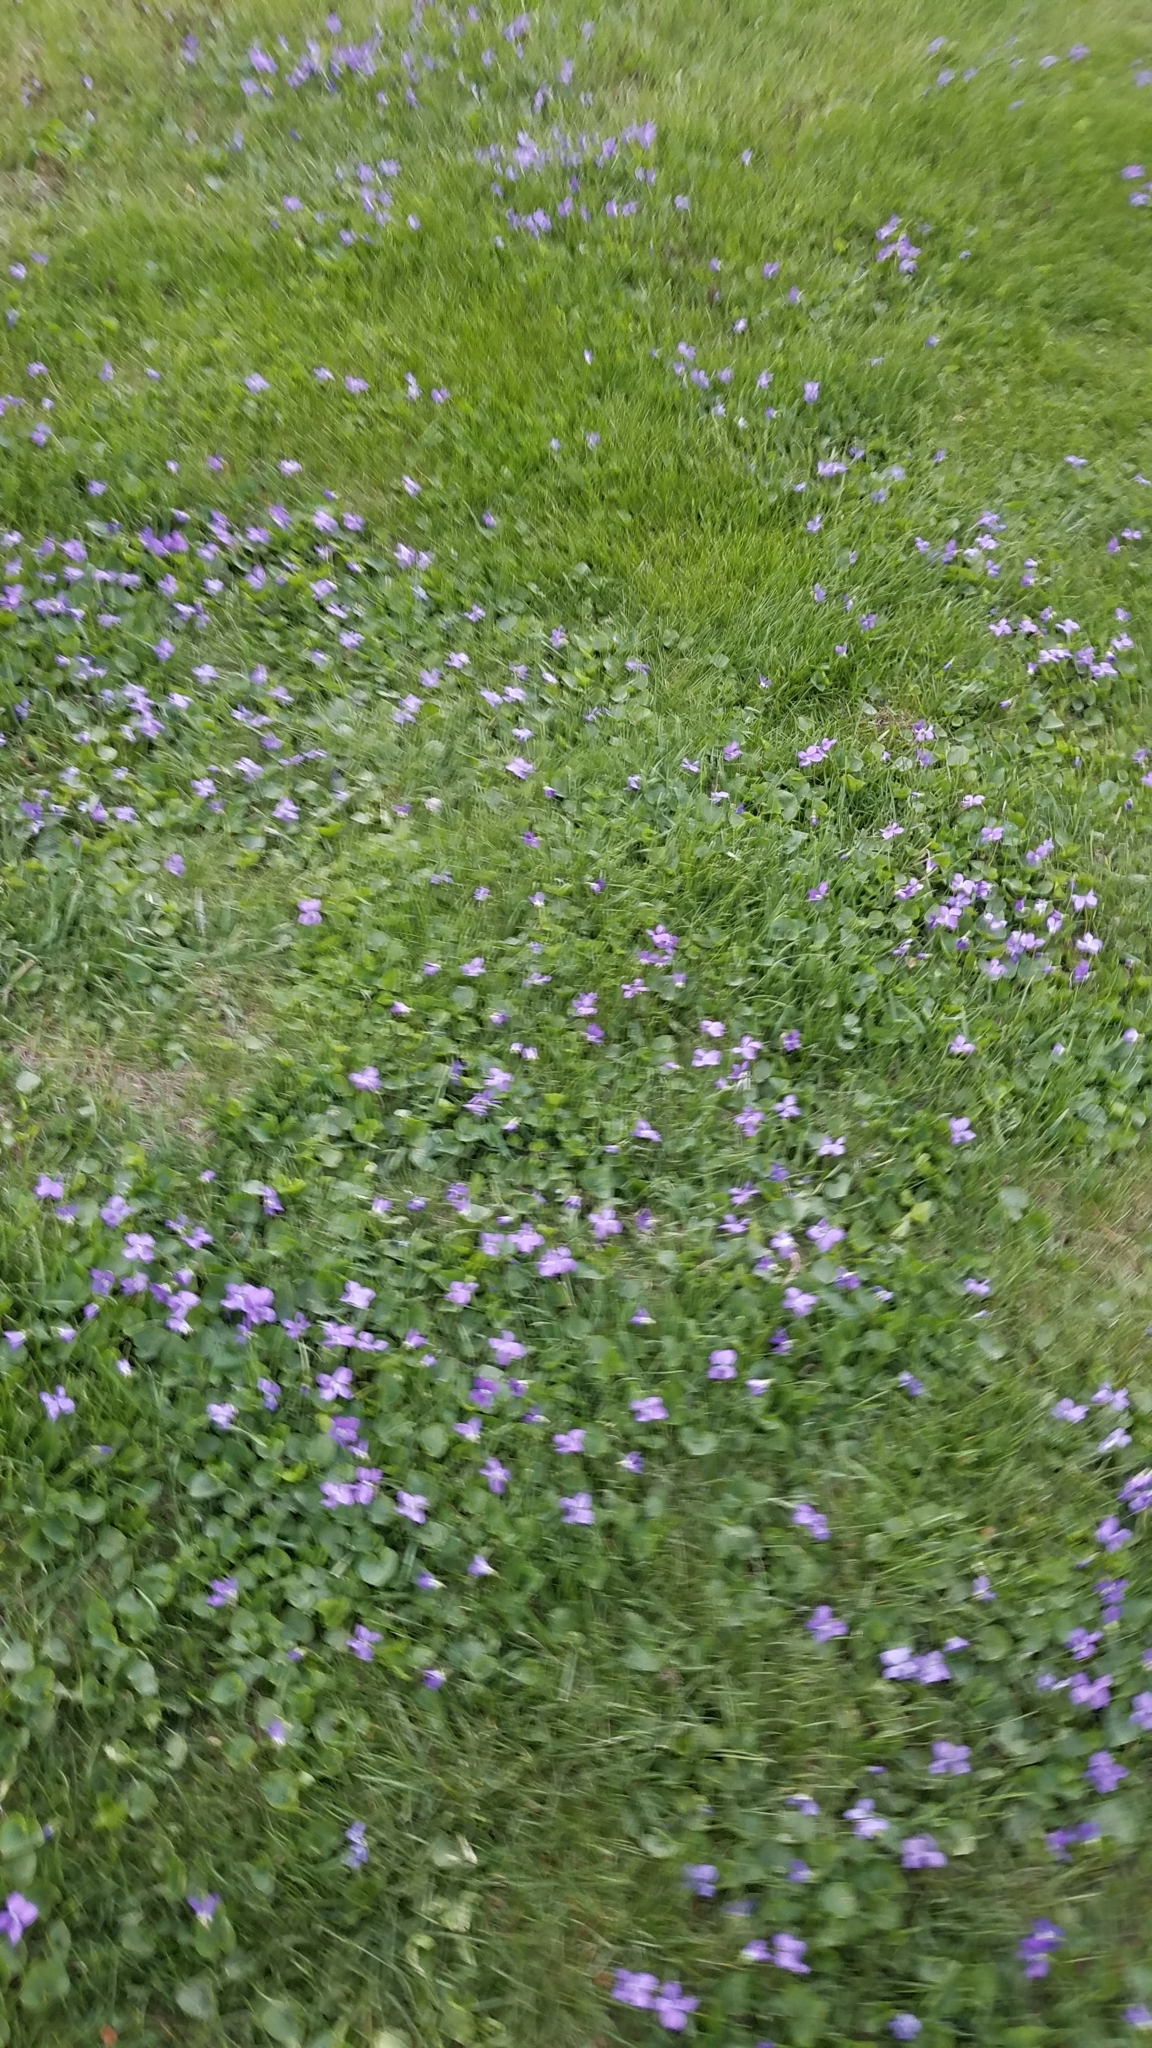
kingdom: Plantae
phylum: Tracheophyta
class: Magnoliopsida
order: Malpighiales
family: Violaceae
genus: Viola
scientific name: Viola sororia
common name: Dooryard violet
